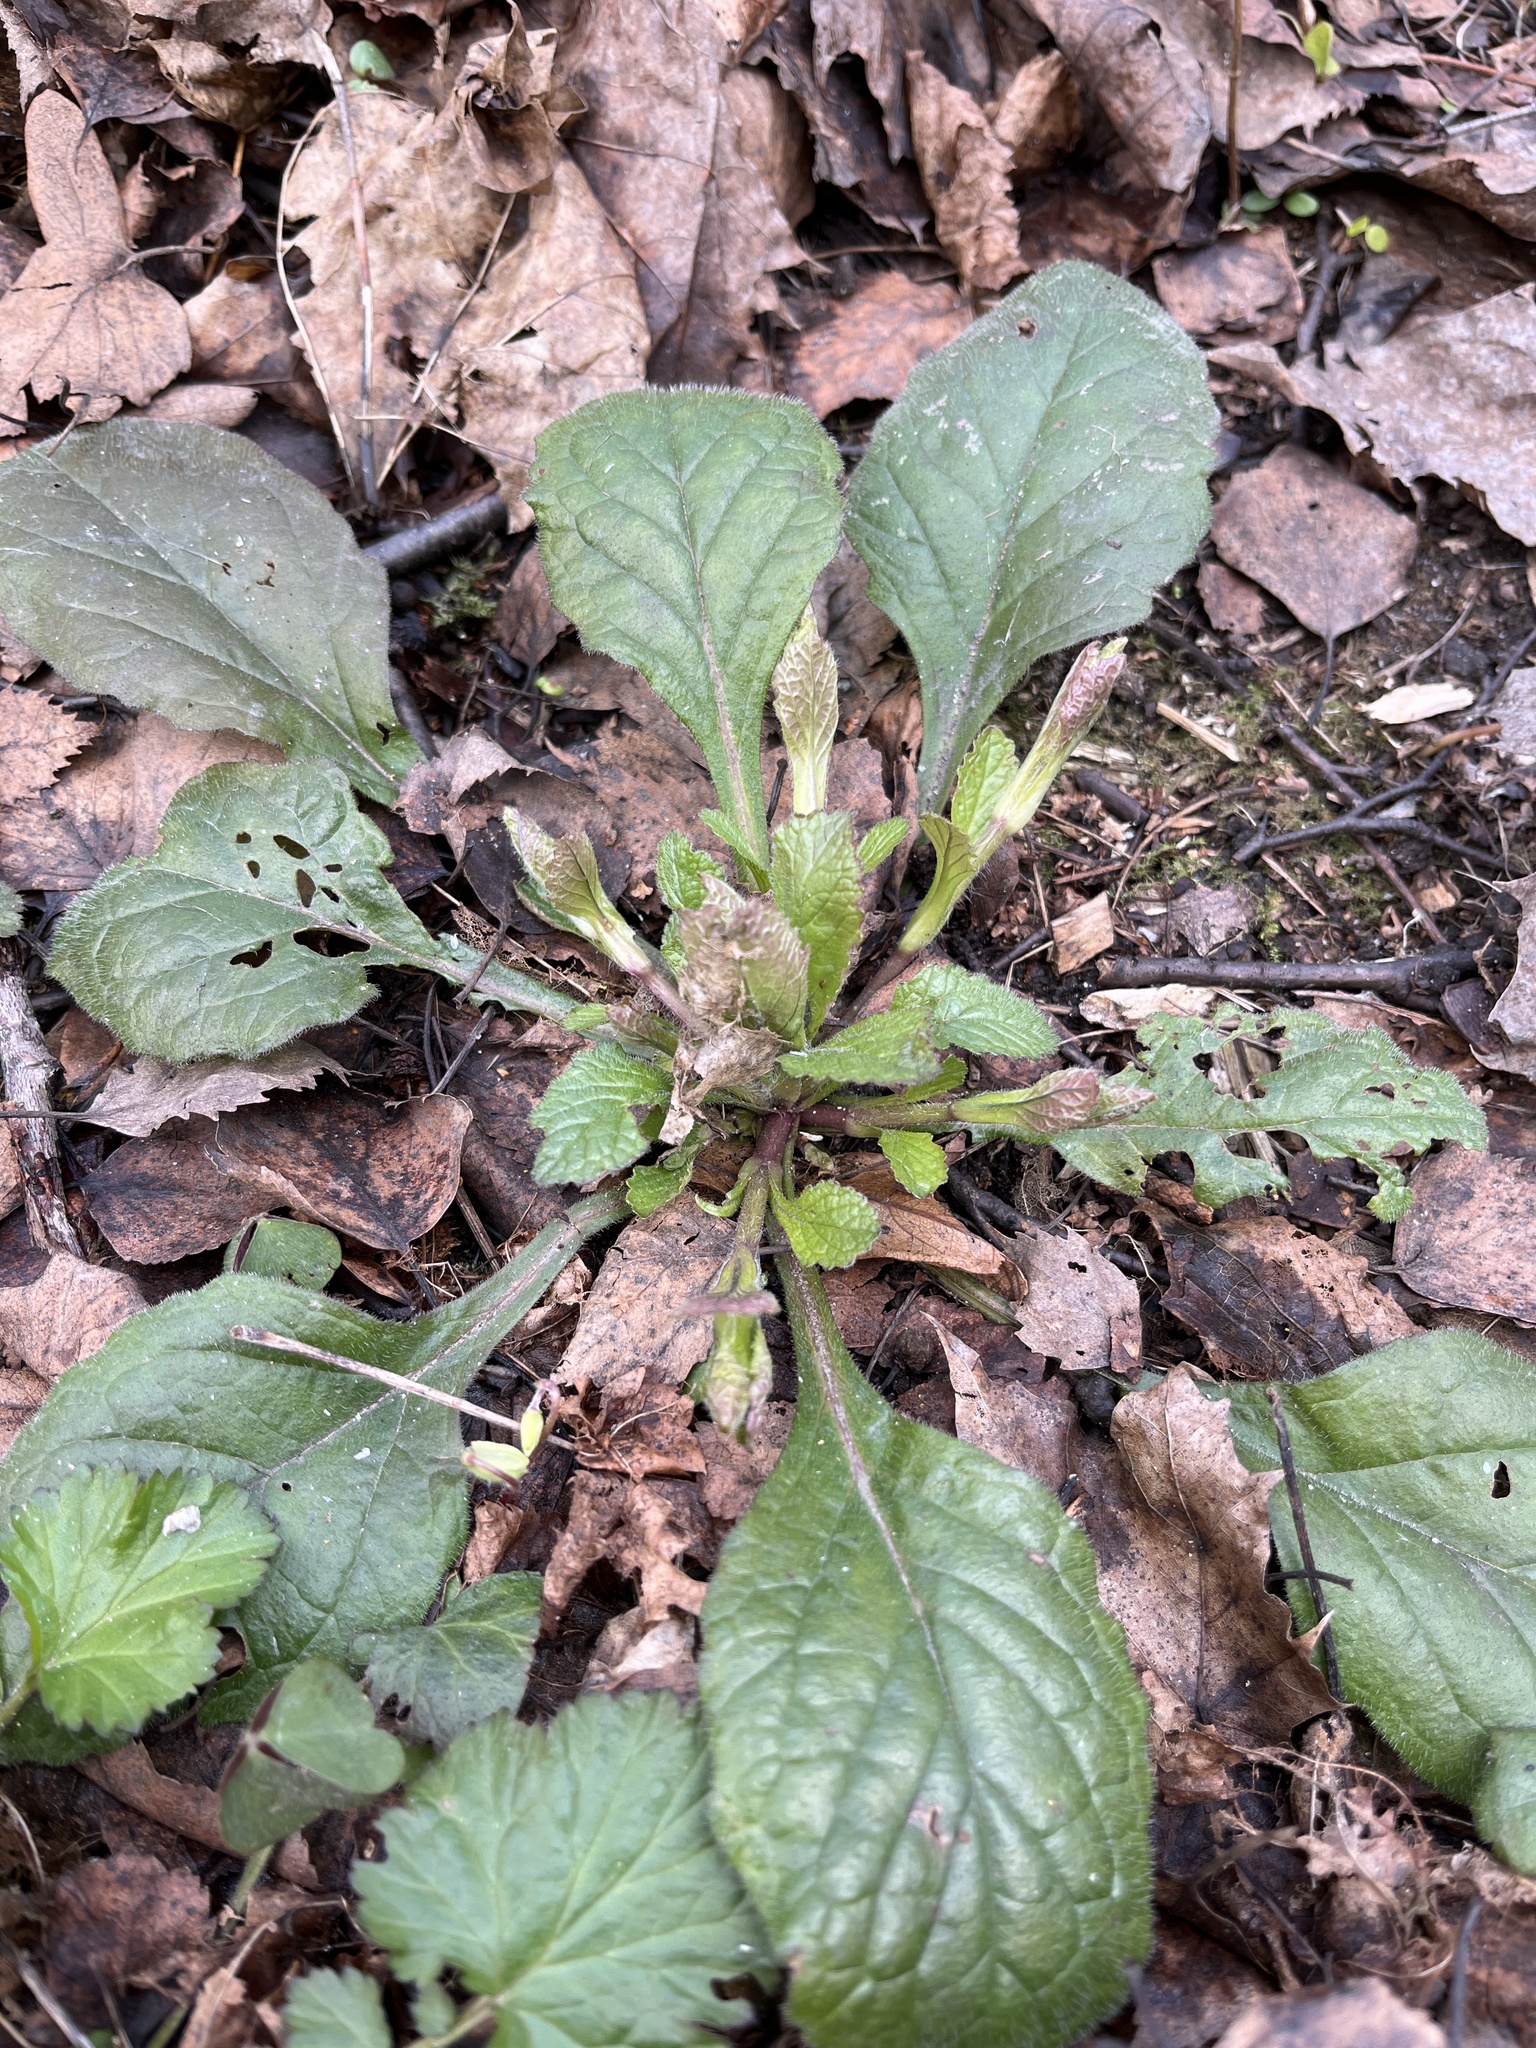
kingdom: Plantae
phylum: Tracheophyta
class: Magnoliopsida
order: Lamiales
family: Lamiaceae
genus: Ajuga
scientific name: Ajuga reptans
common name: Bugle
